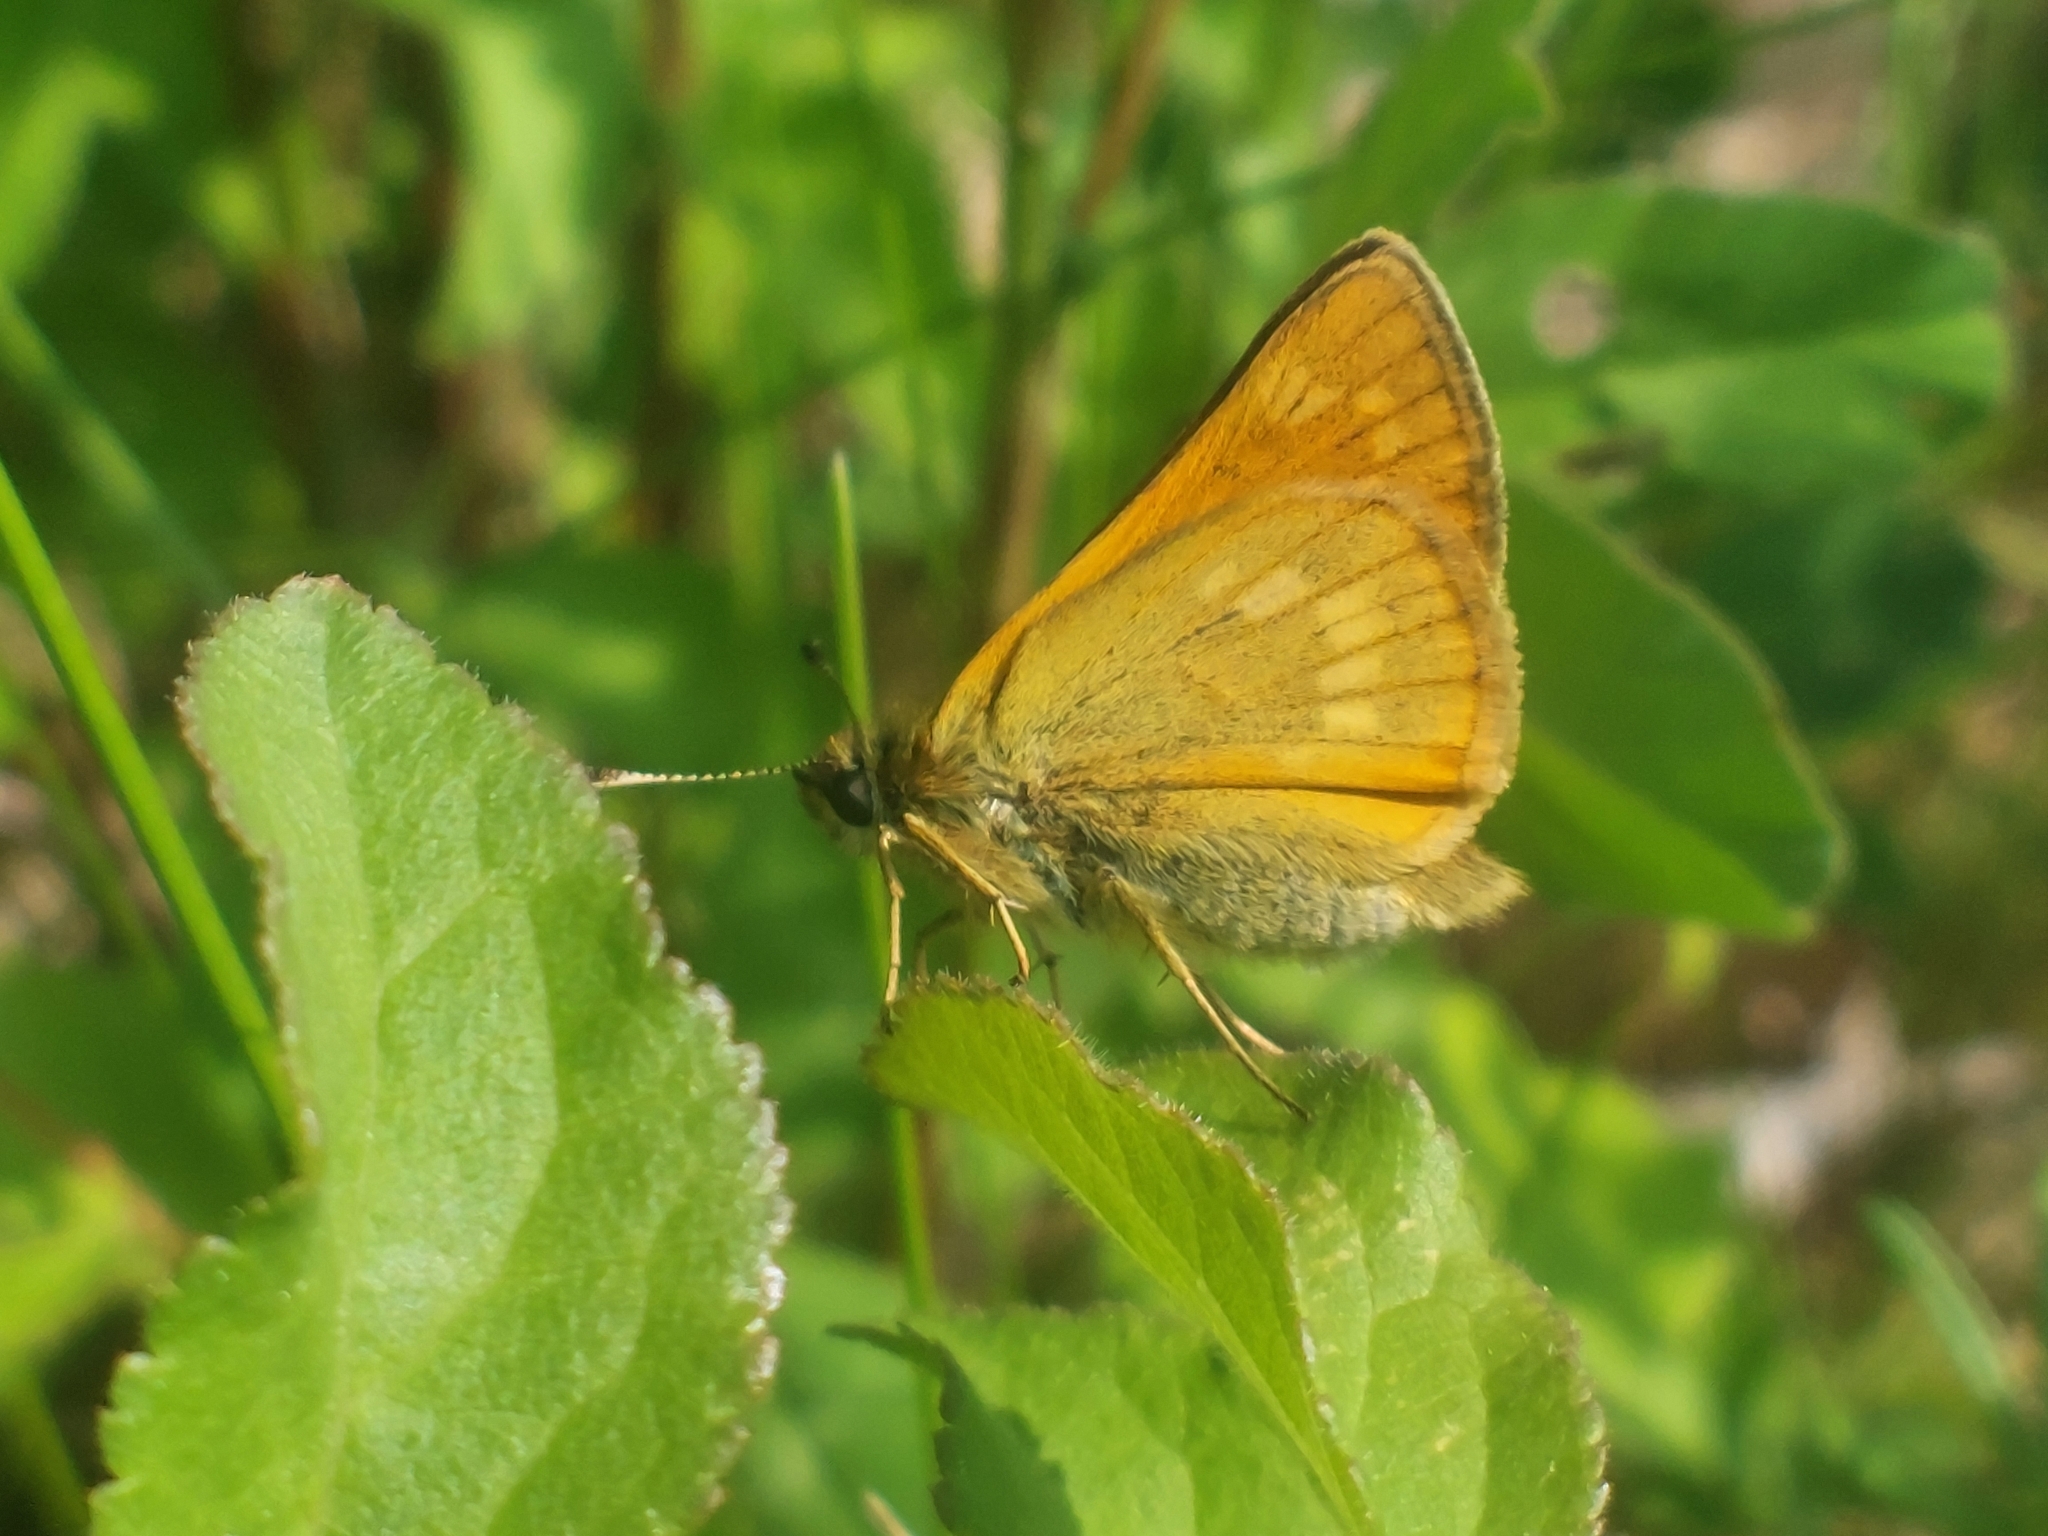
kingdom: Animalia
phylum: Arthropoda
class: Insecta
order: Lepidoptera
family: Hesperiidae
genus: Ochlodes
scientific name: Ochlodes venata
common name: Large skipper
